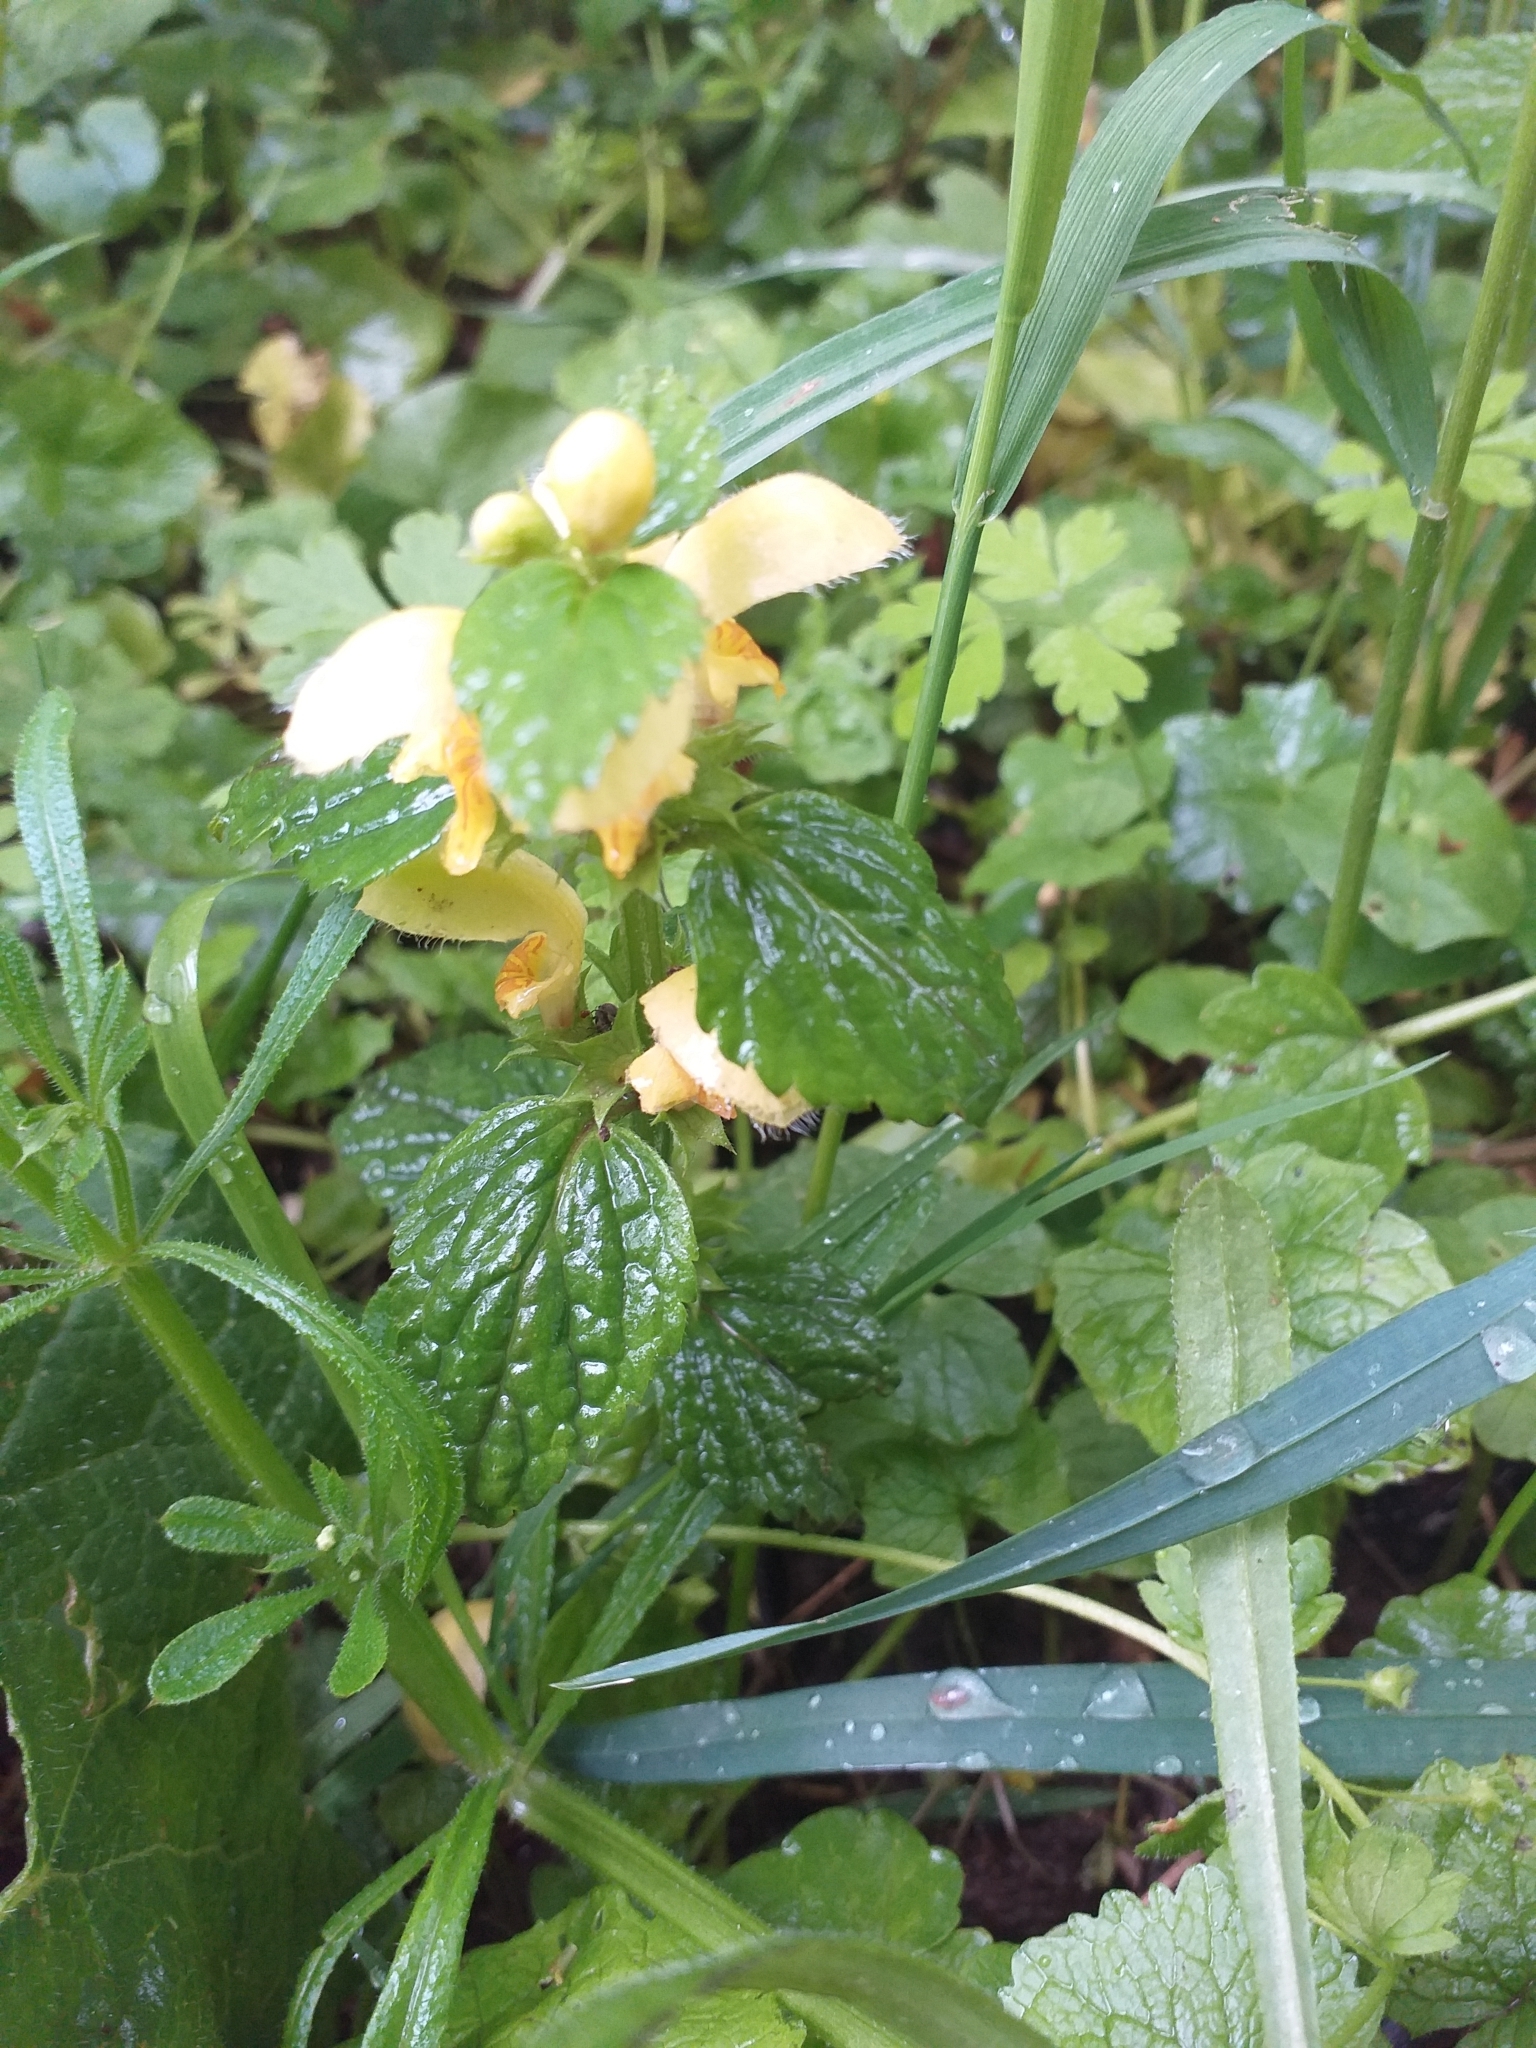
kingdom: Plantae
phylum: Tracheophyta
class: Magnoliopsida
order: Lamiales
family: Lamiaceae
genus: Lamium
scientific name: Lamium galeobdolon
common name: Yellow archangel
